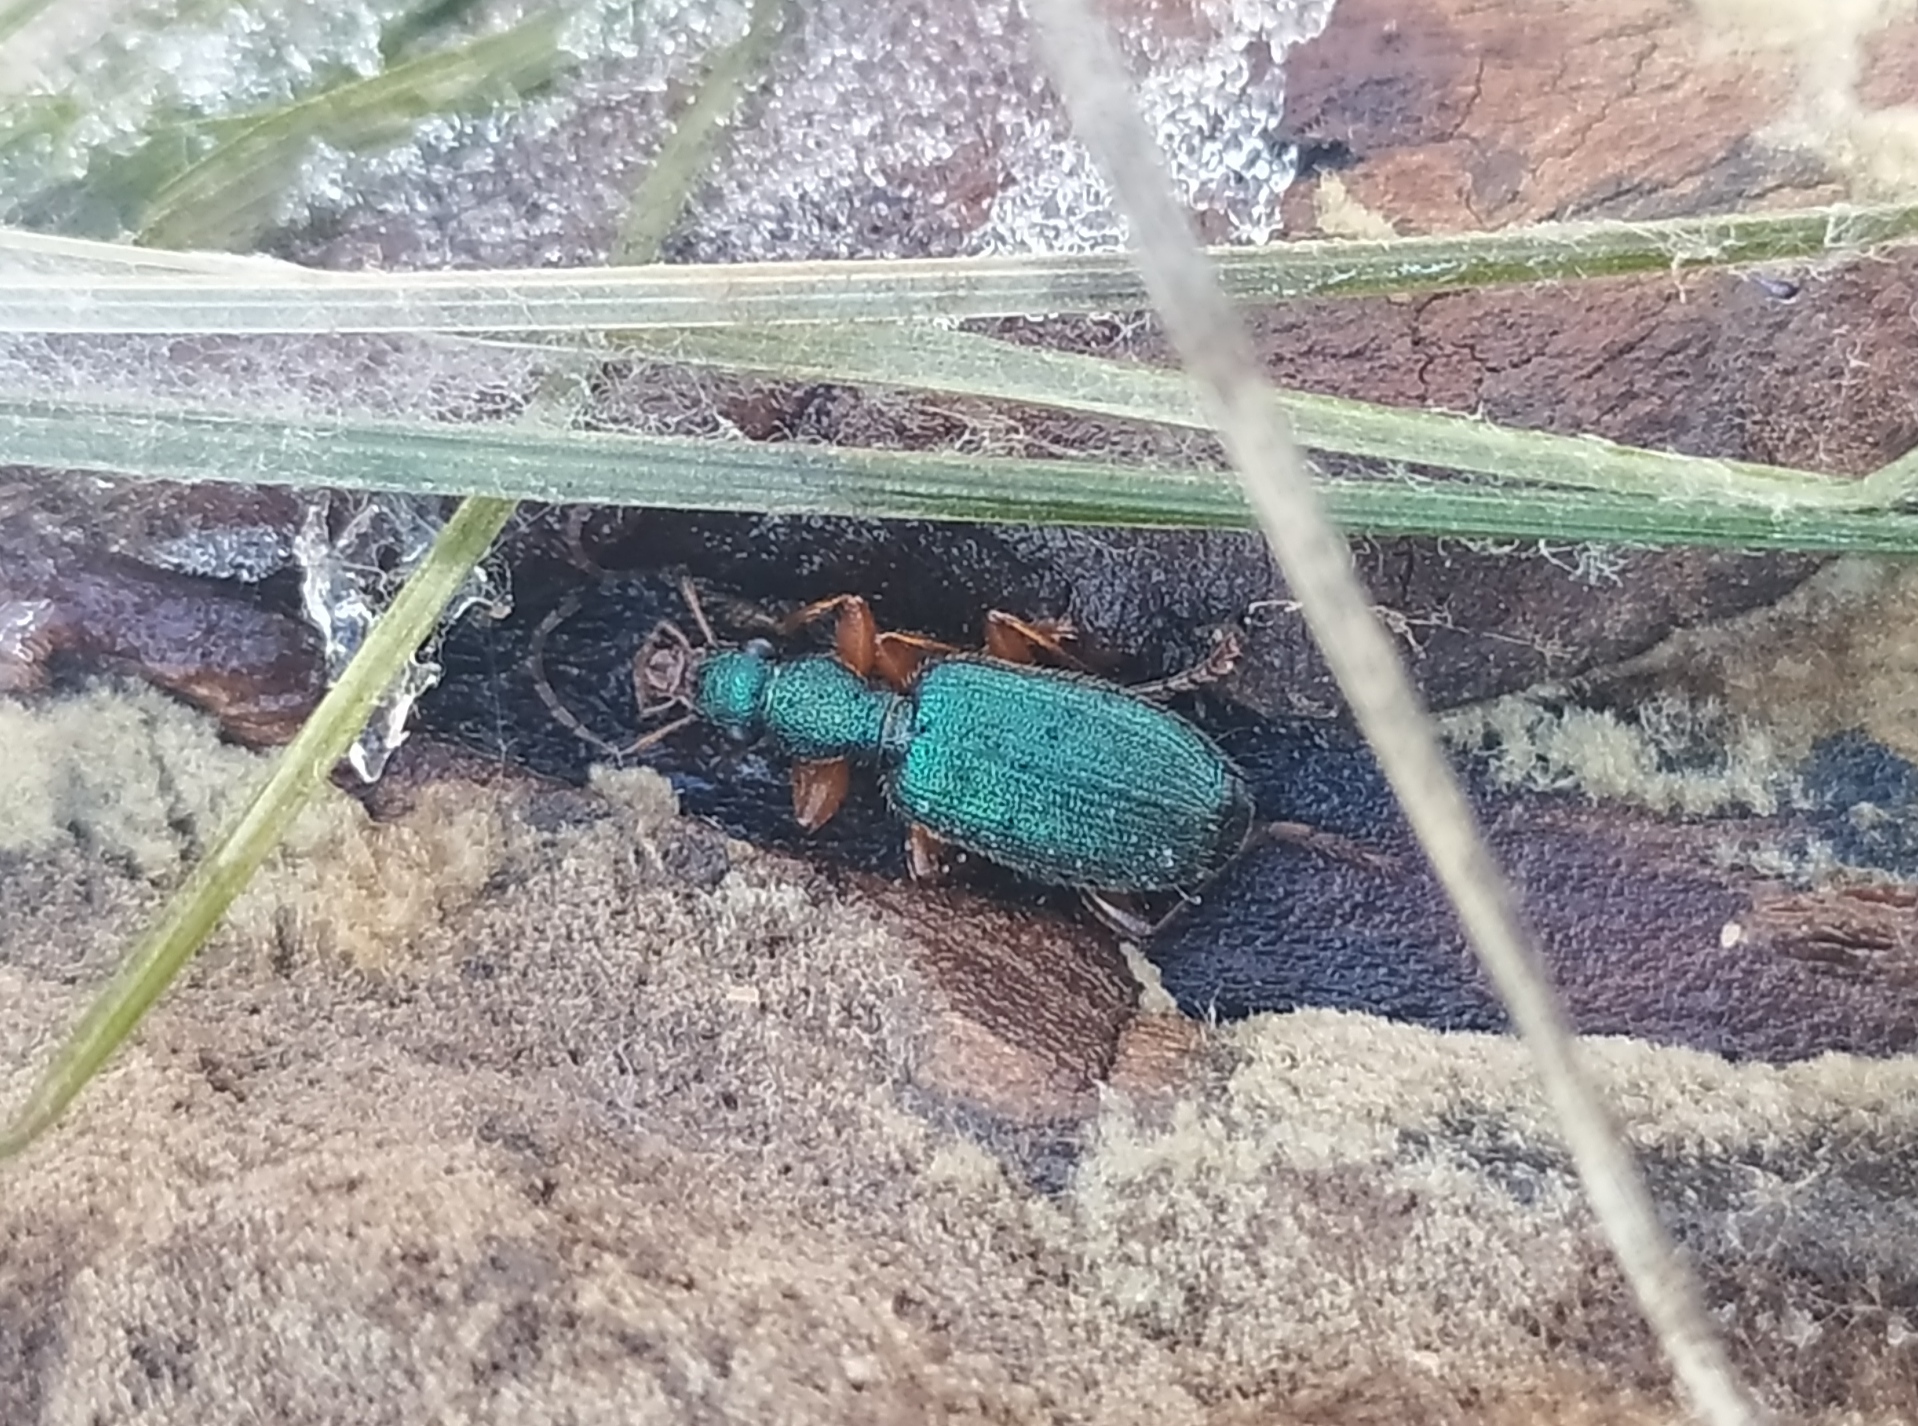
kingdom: Animalia
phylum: Arthropoda
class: Insecta
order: Coleoptera
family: Carabidae
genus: Drypta
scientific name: Drypta dentata
